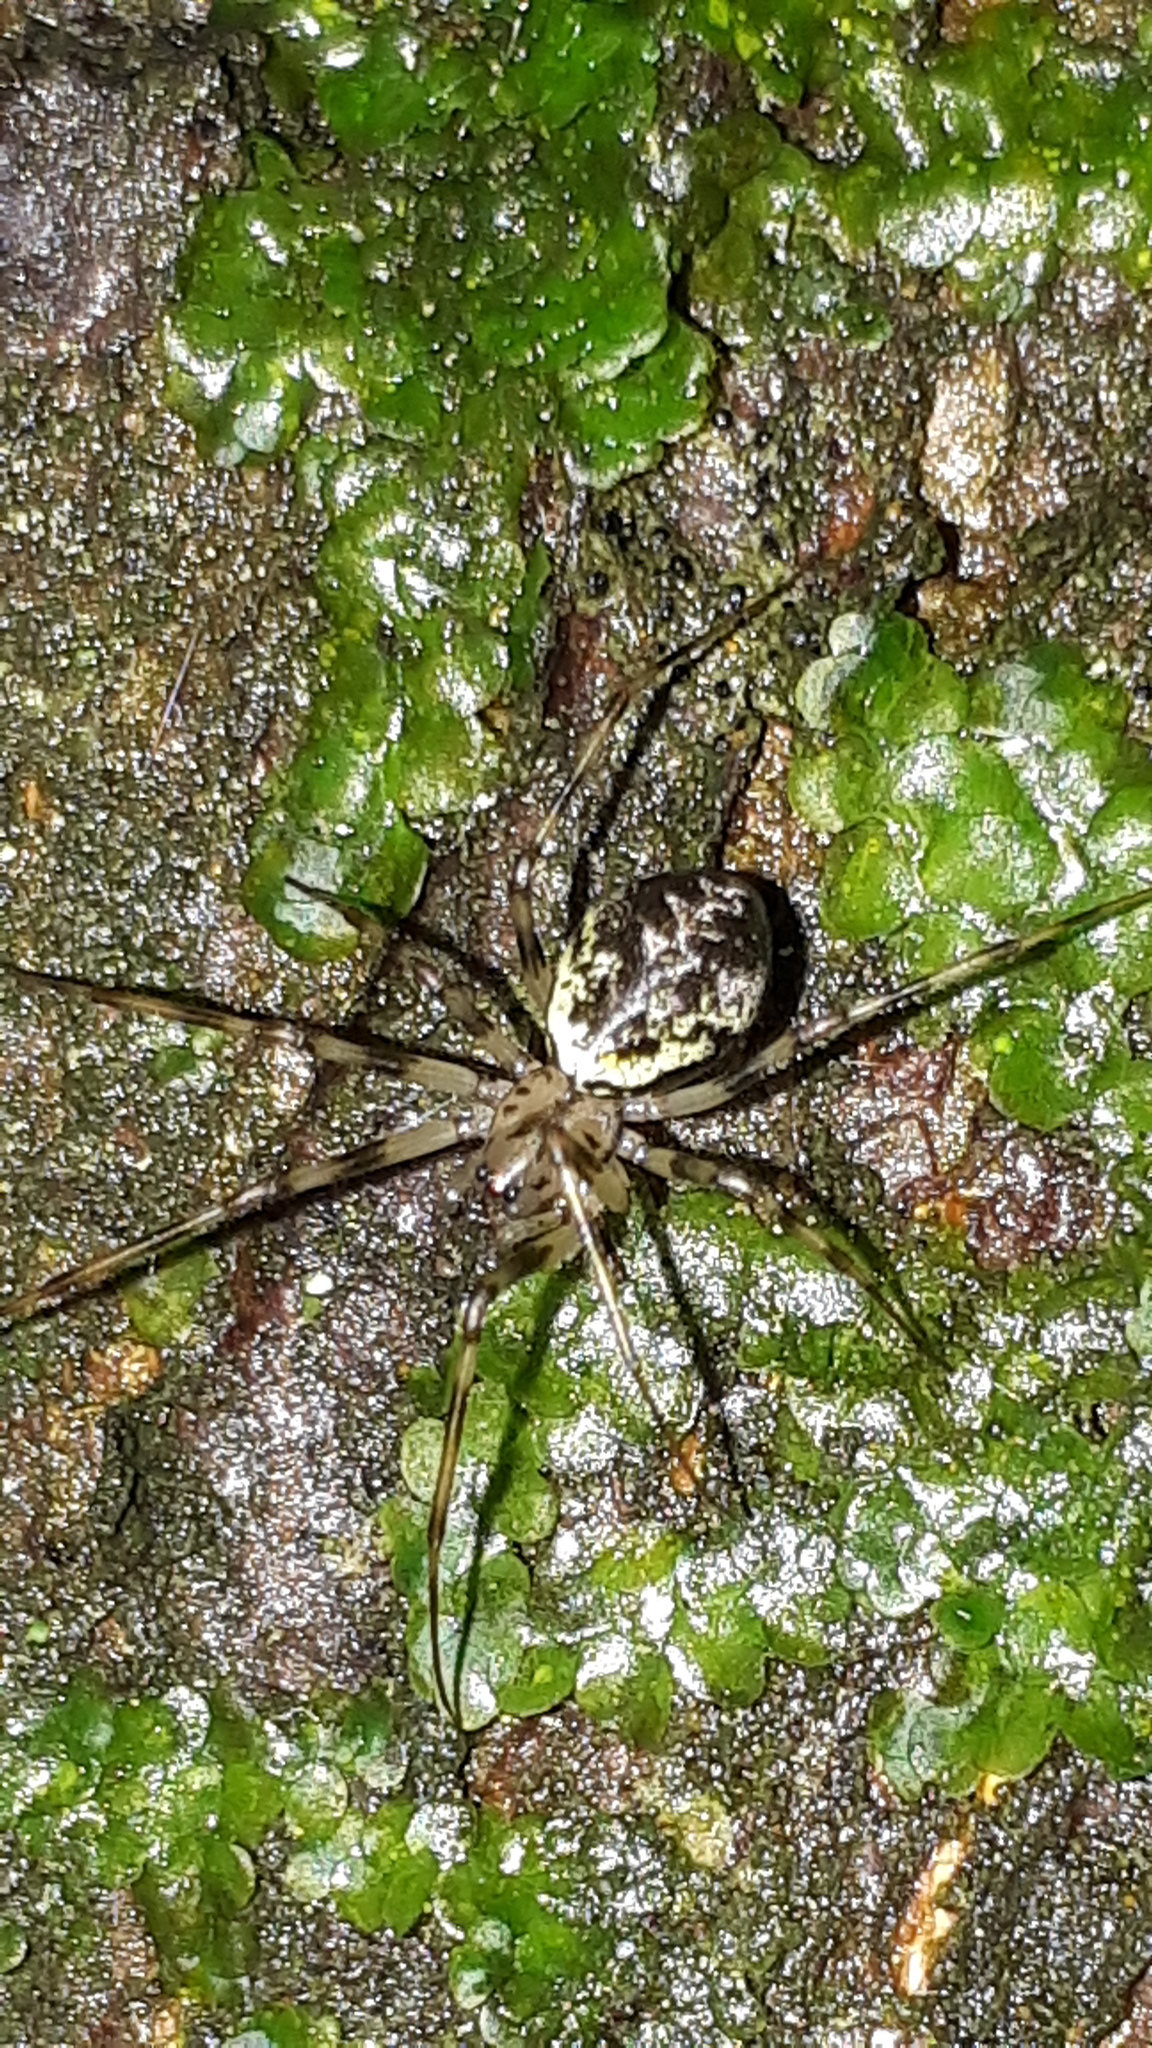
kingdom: Animalia
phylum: Arthropoda
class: Arachnida
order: Araneae
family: Linyphiidae
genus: Drapetisca
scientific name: Drapetisca socialis
